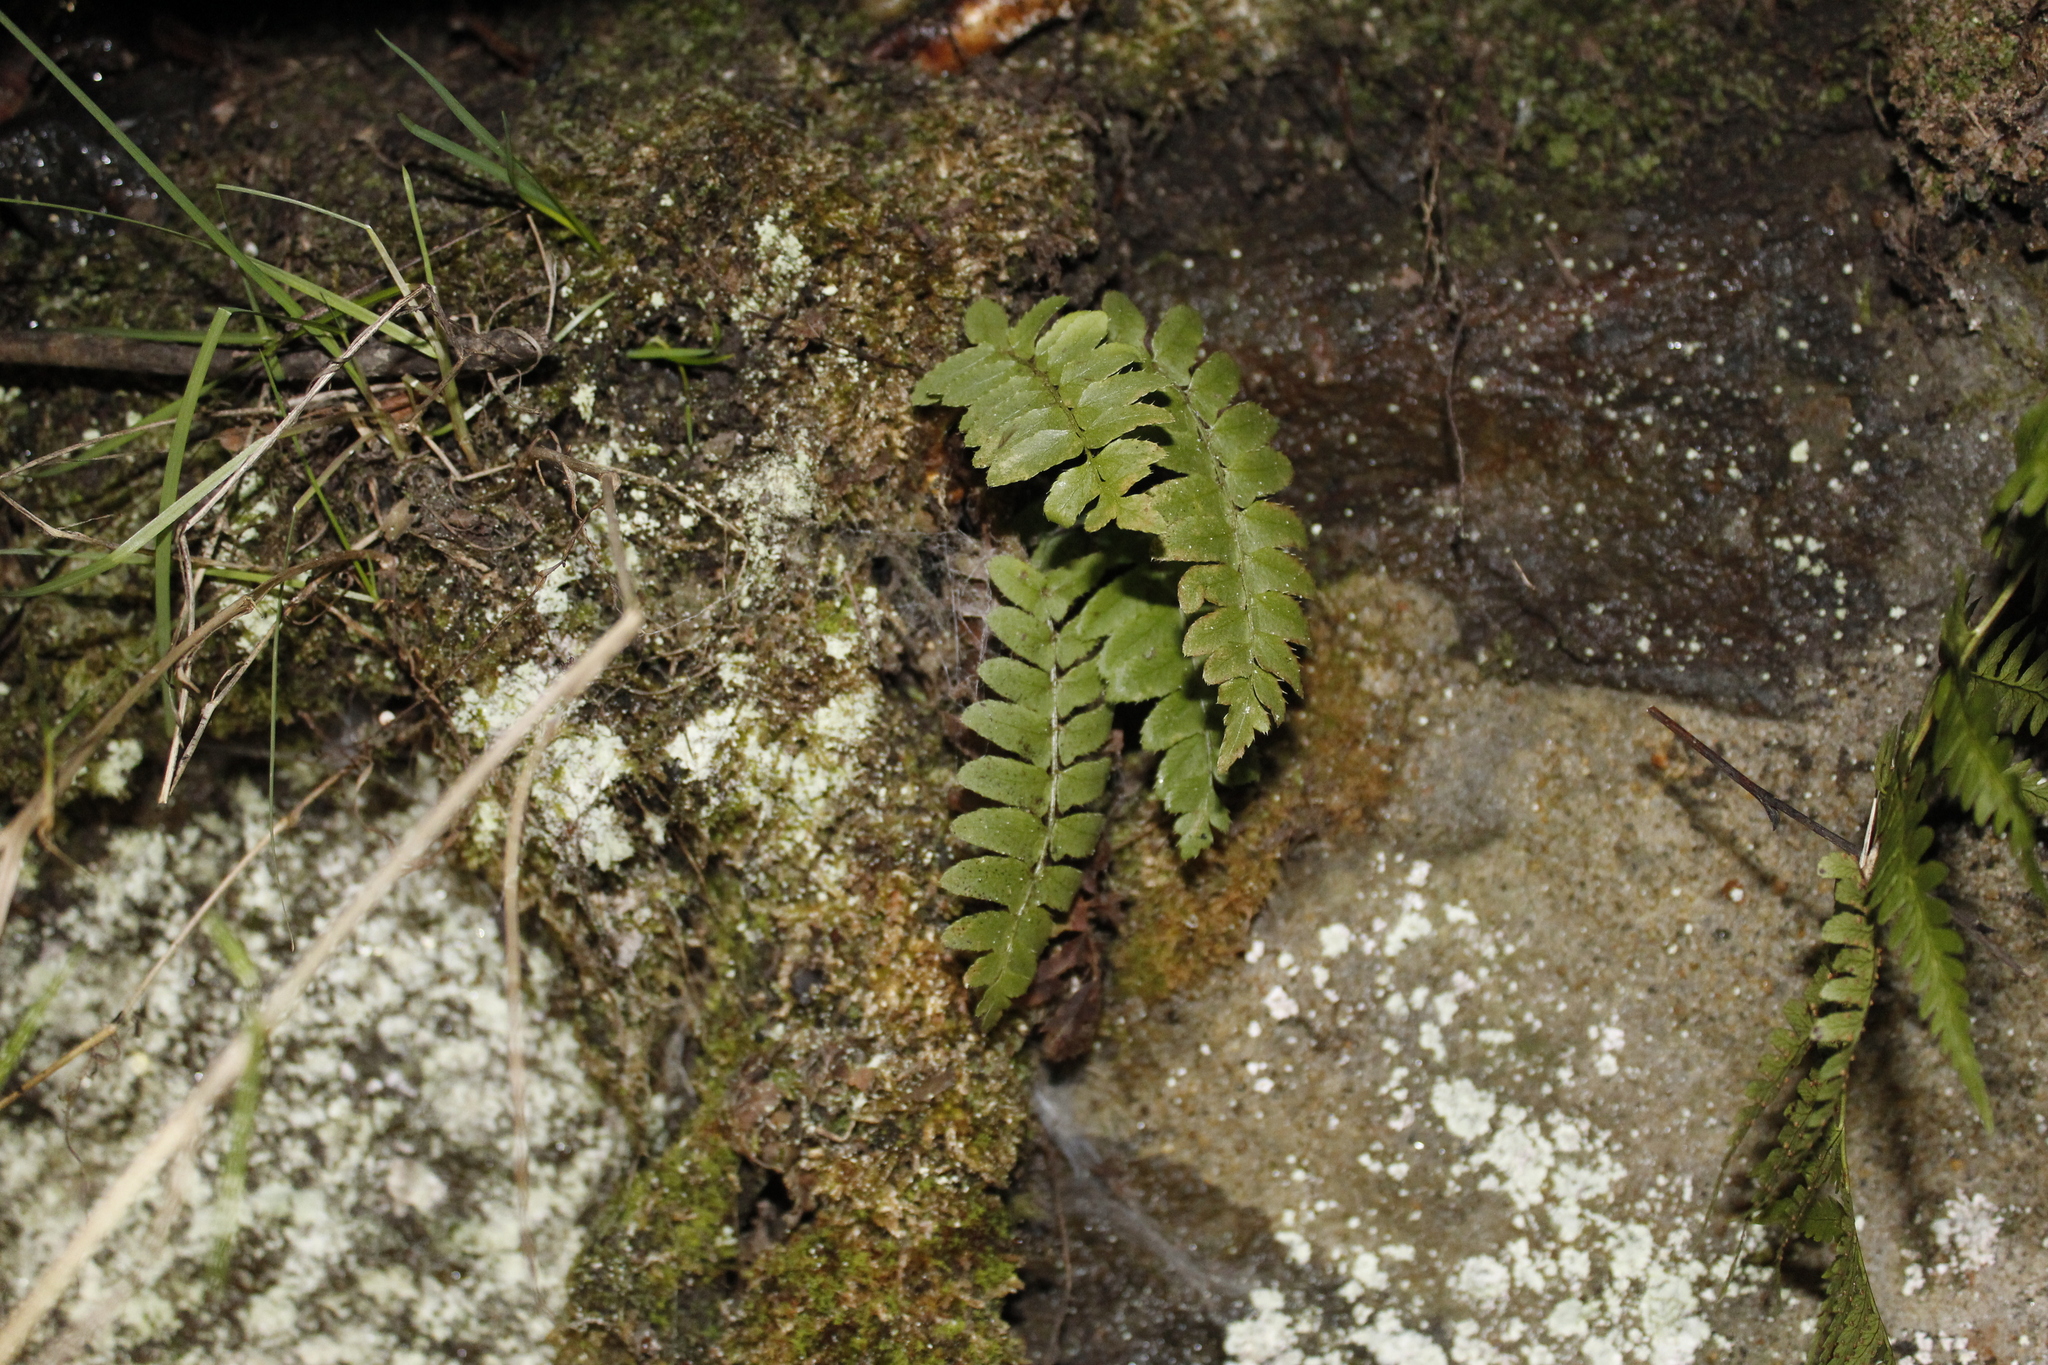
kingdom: Plantae
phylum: Tracheophyta
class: Polypodiopsida
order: Polypodiales
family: Dryopteridaceae
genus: Polystichum
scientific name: Polystichum acrostichoides
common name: Christmas fern
